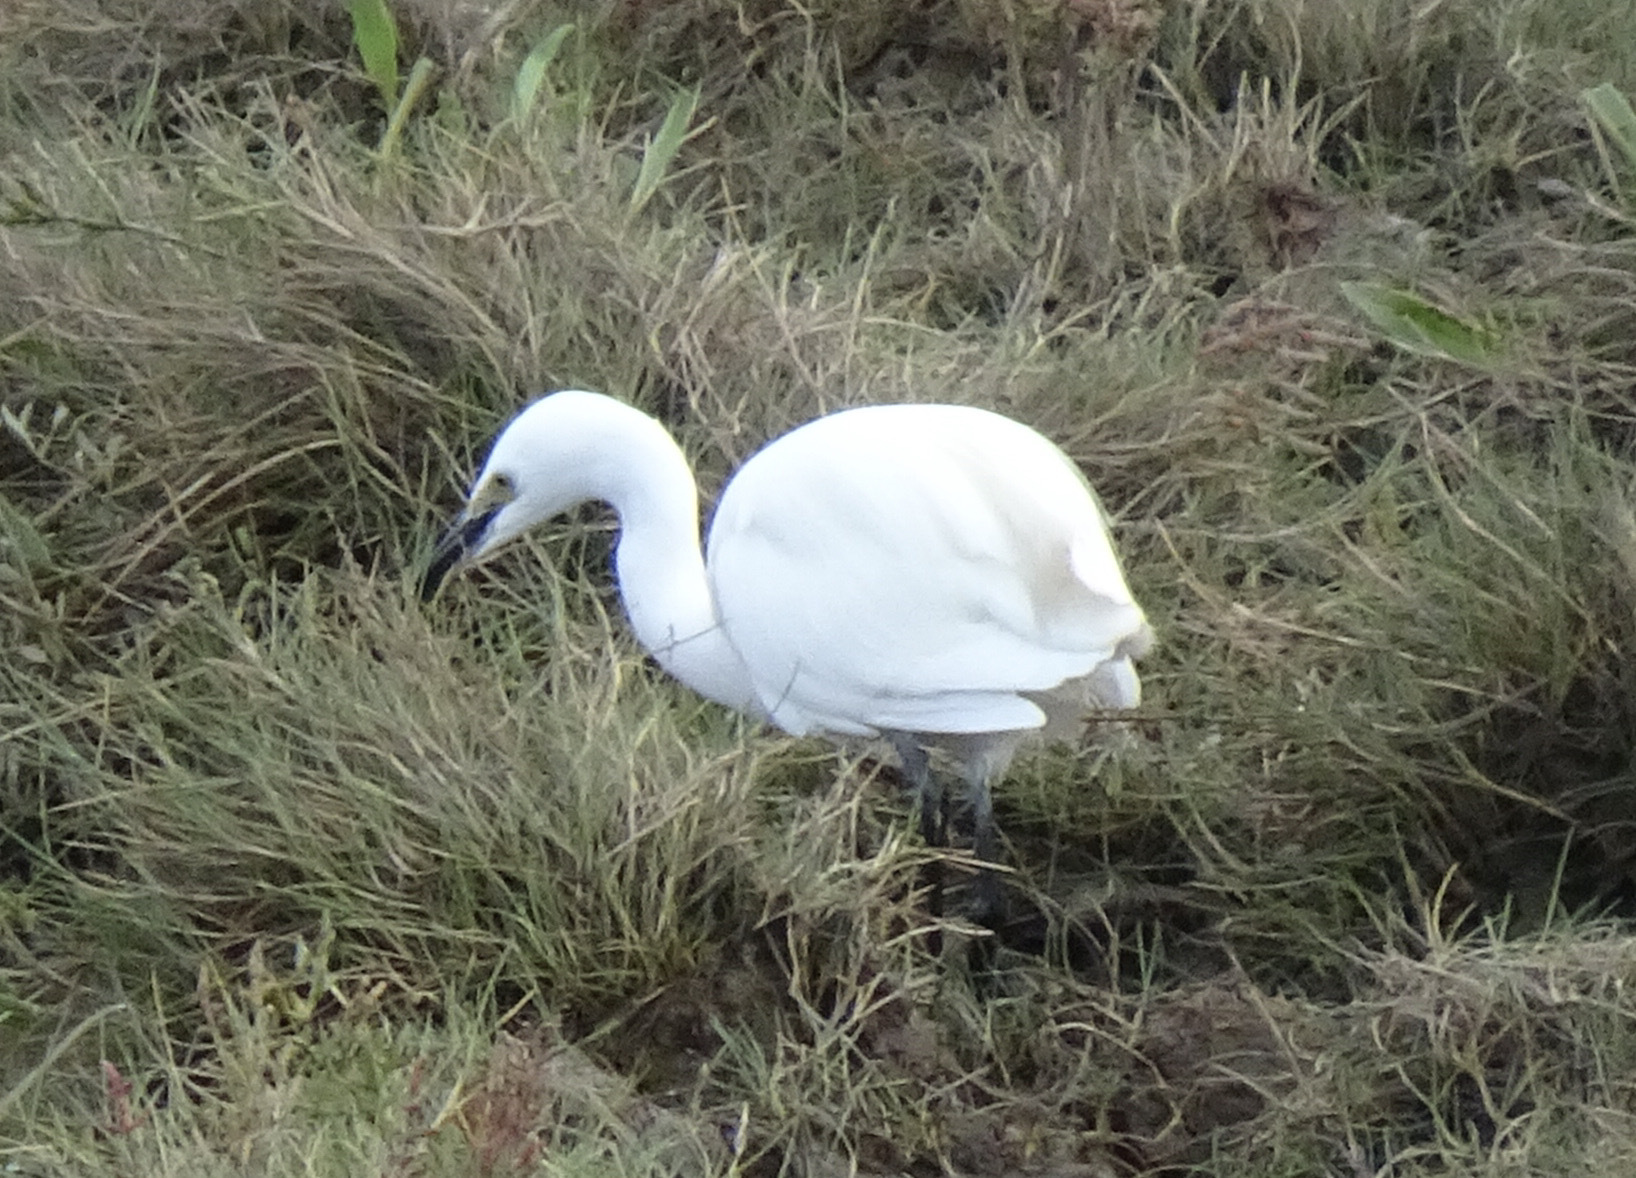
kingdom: Animalia
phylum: Chordata
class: Aves
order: Pelecaniformes
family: Ardeidae
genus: Egretta
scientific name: Egretta garzetta
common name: Little egret
